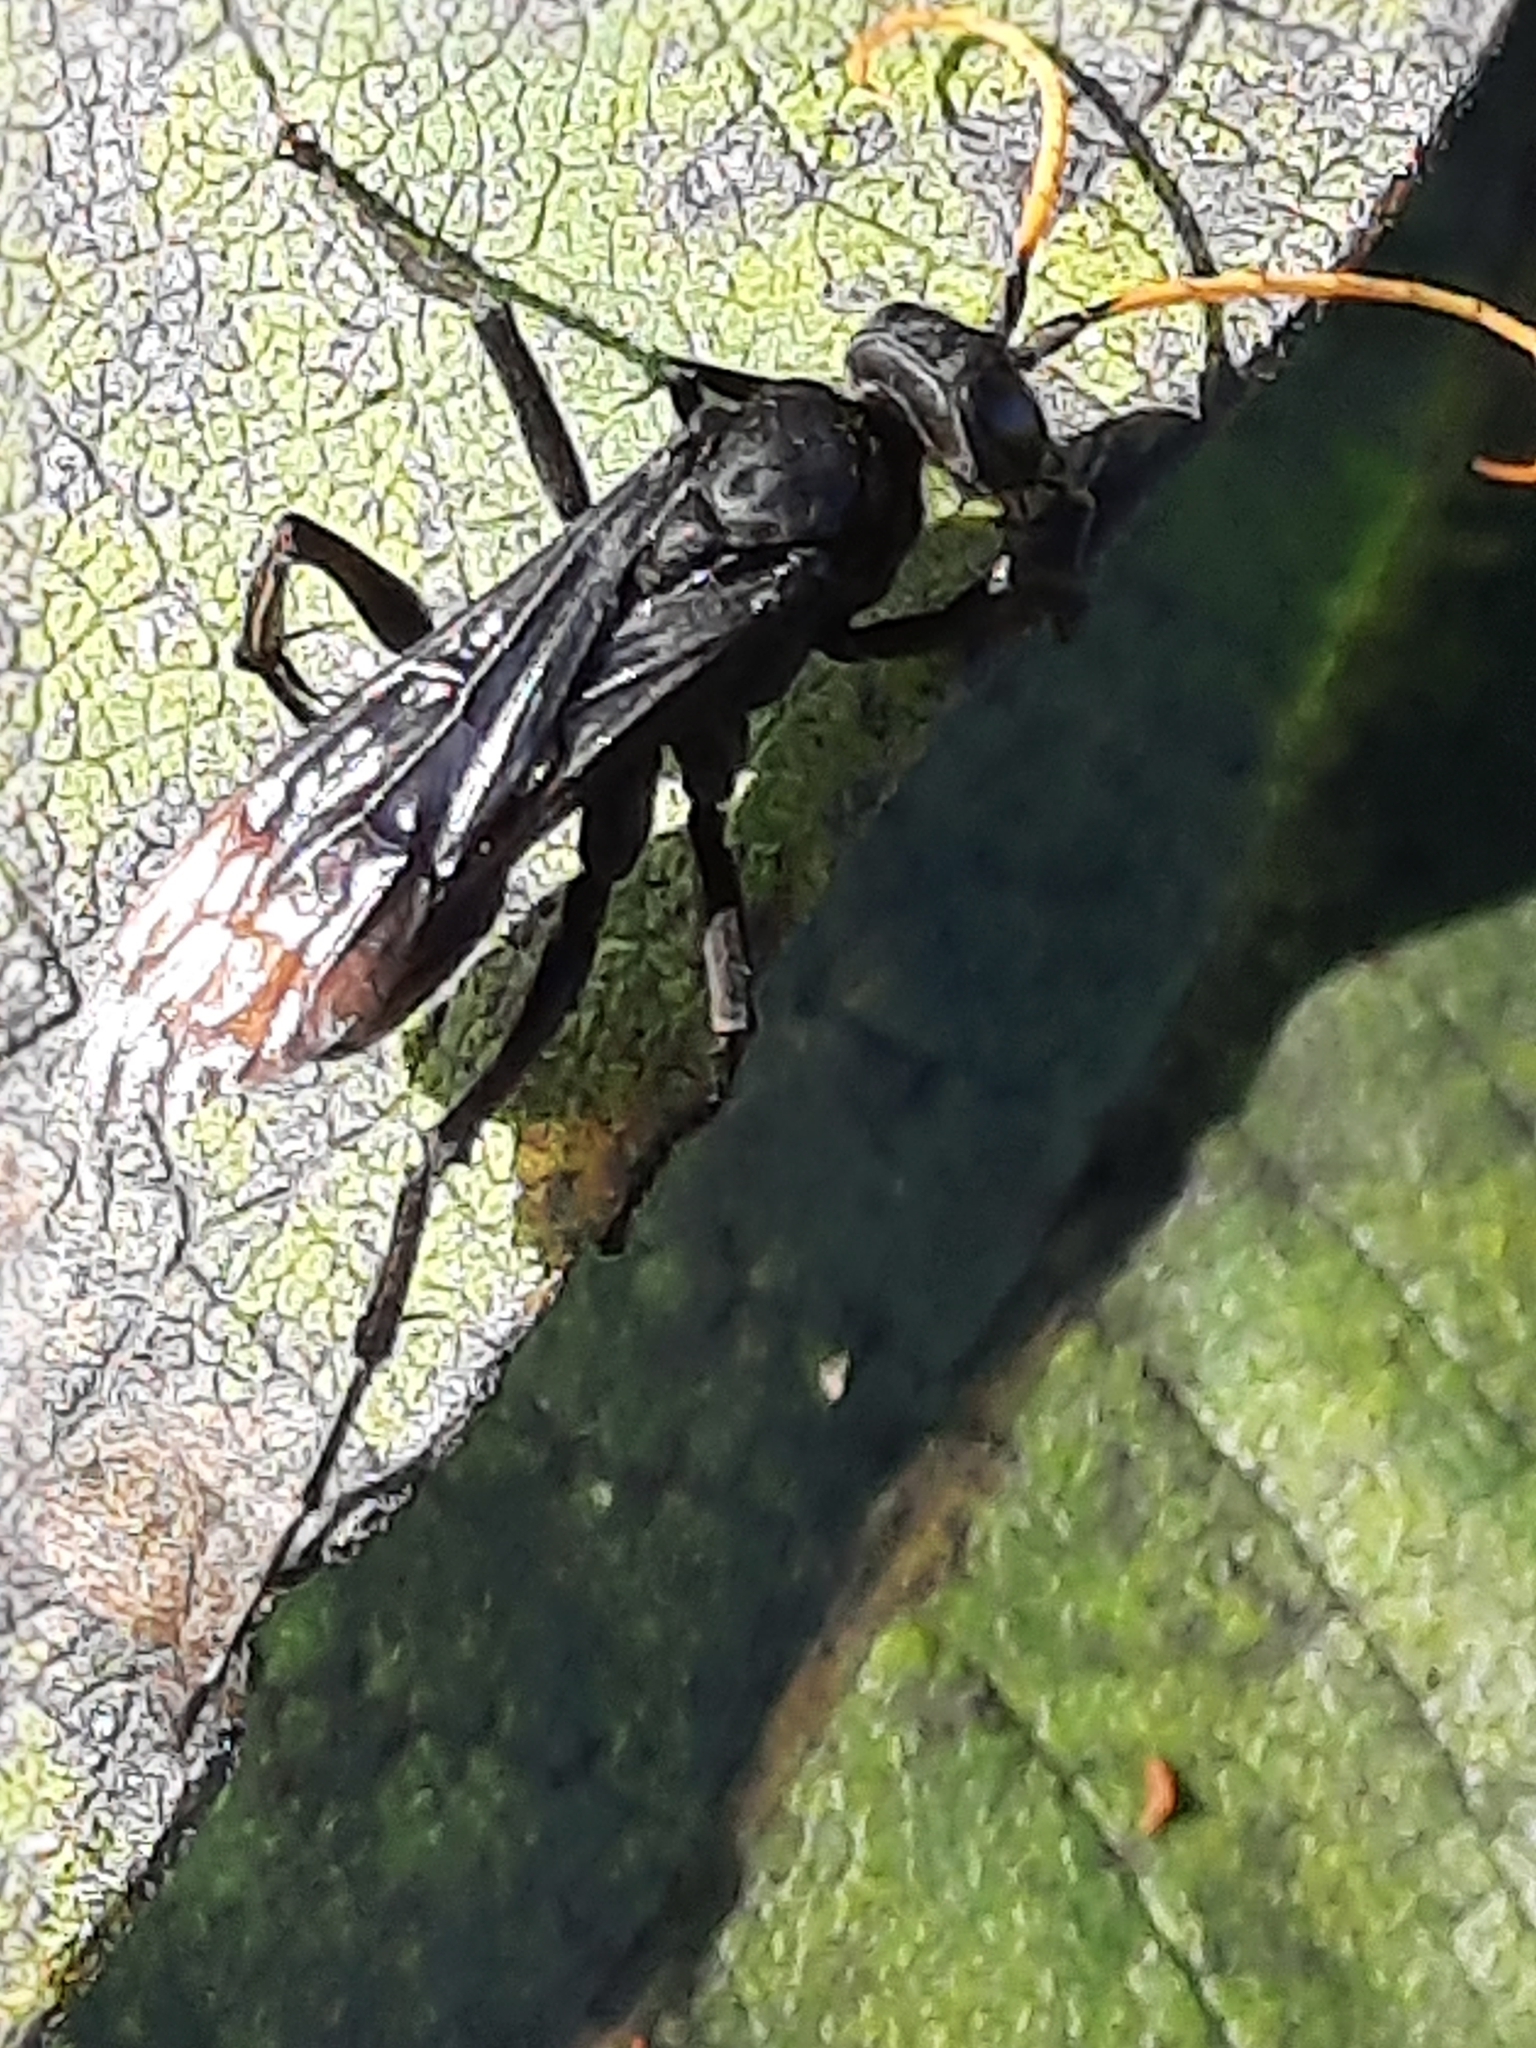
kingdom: Animalia
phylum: Arthropoda
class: Insecta
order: Hymenoptera
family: Pompilidae
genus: Entypus
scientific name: Entypus unifasciatus
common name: Eastern tawny-horned spider wasp
